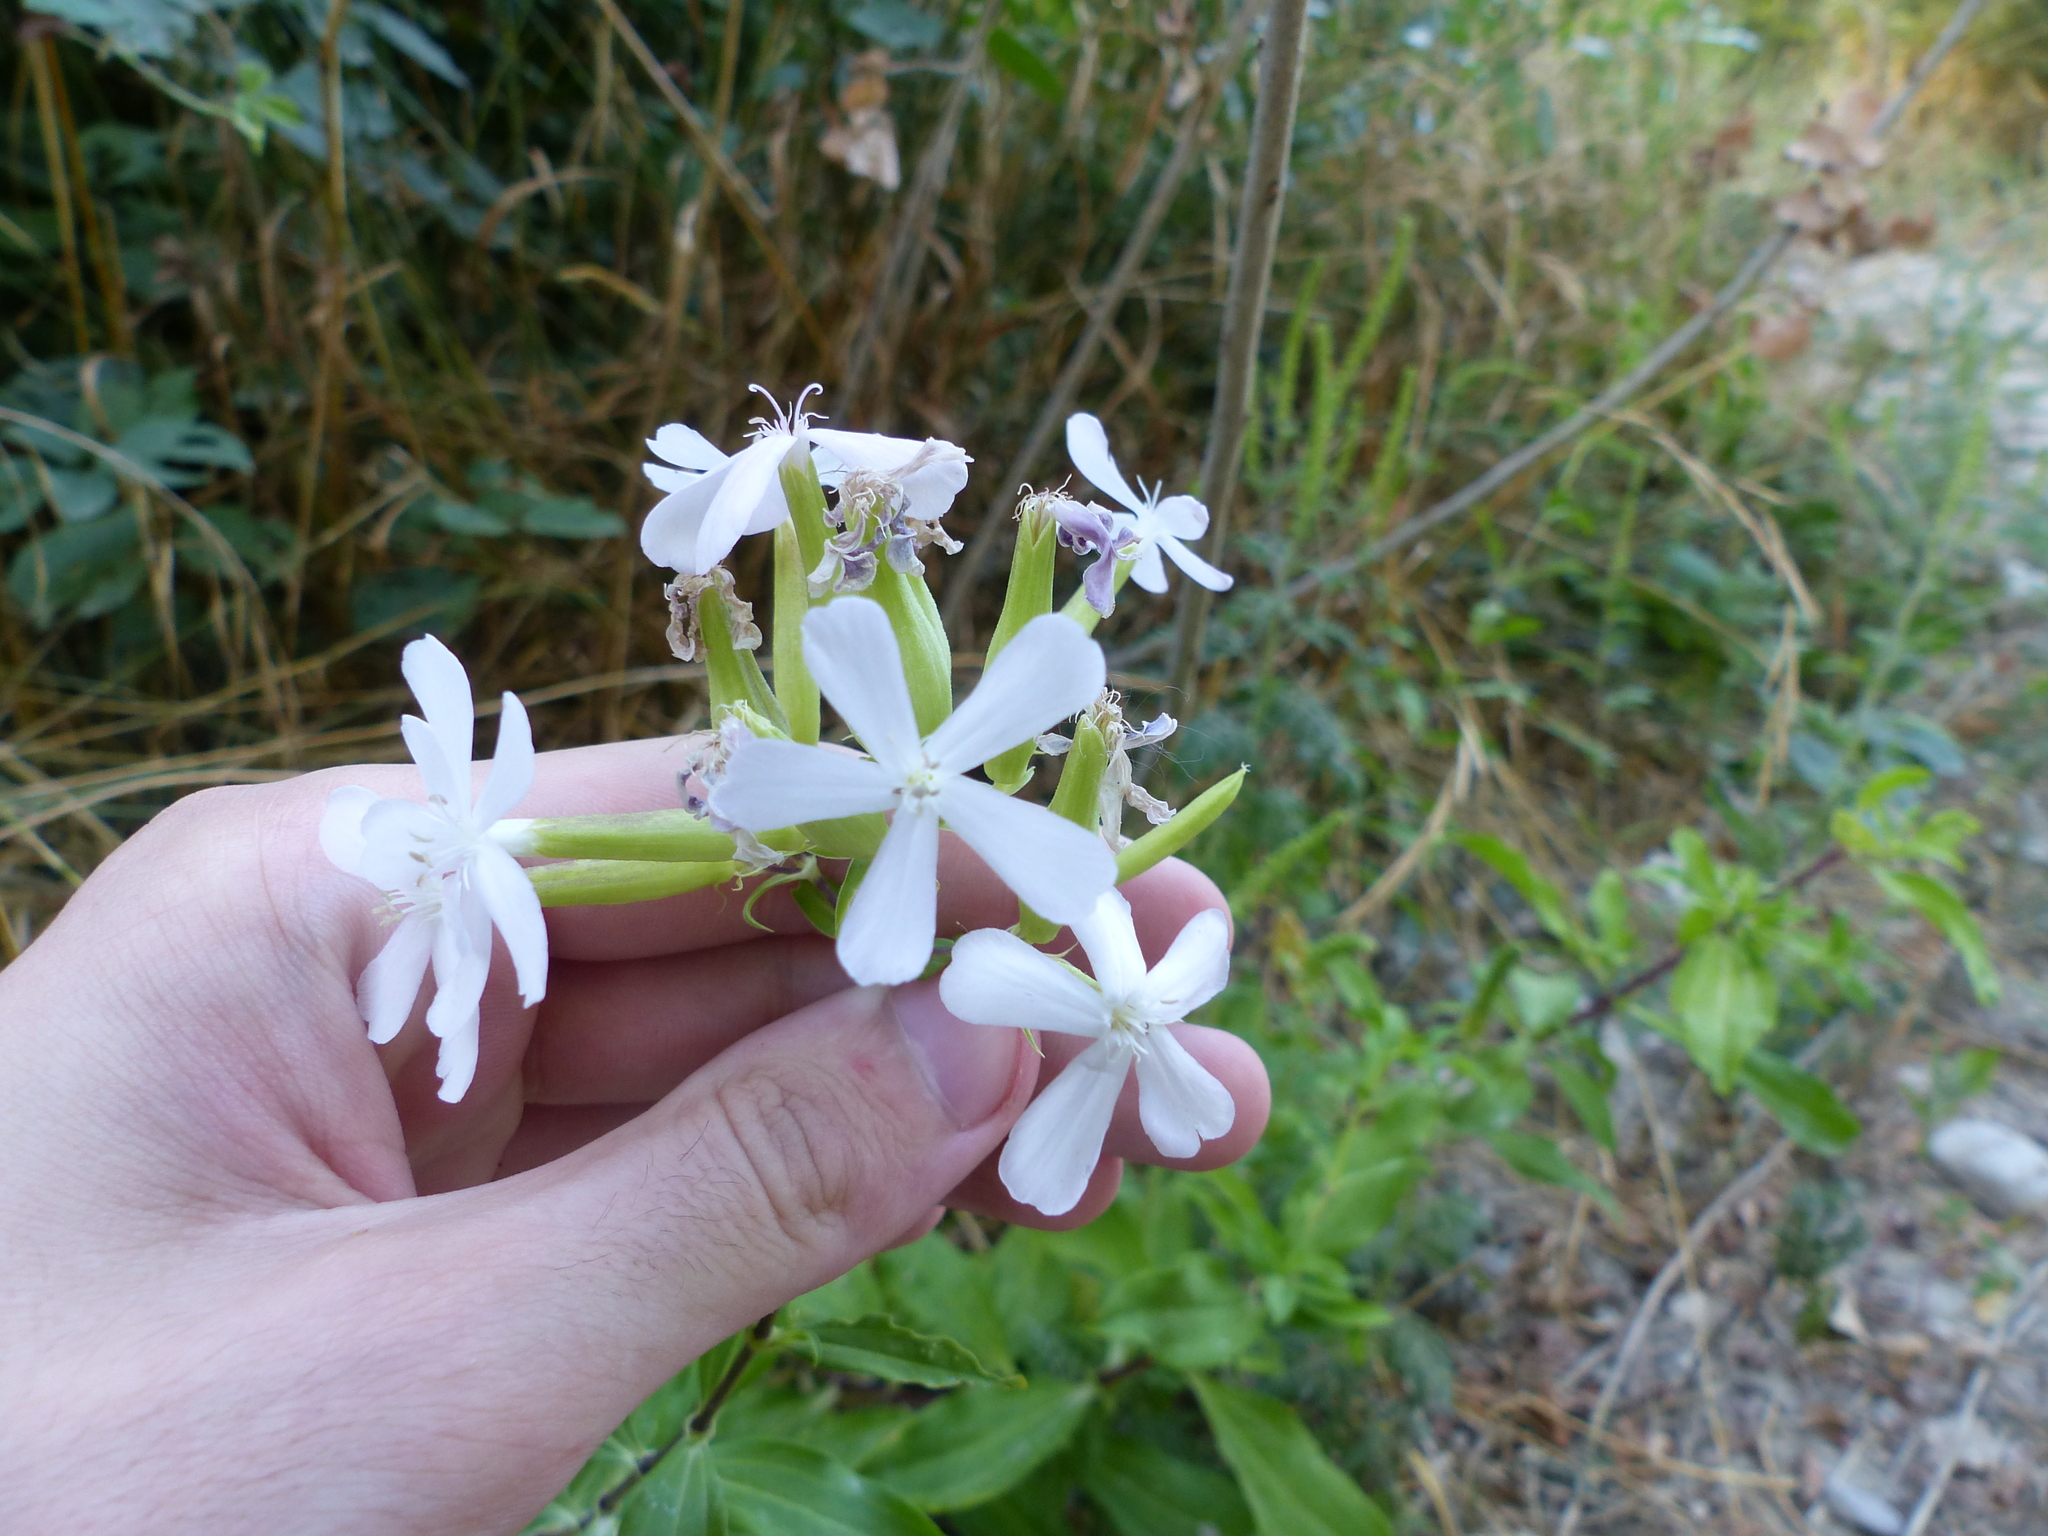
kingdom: Plantae
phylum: Tracheophyta
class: Magnoliopsida
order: Caryophyllales
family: Caryophyllaceae
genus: Saponaria
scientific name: Saponaria officinalis
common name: Soapwort
